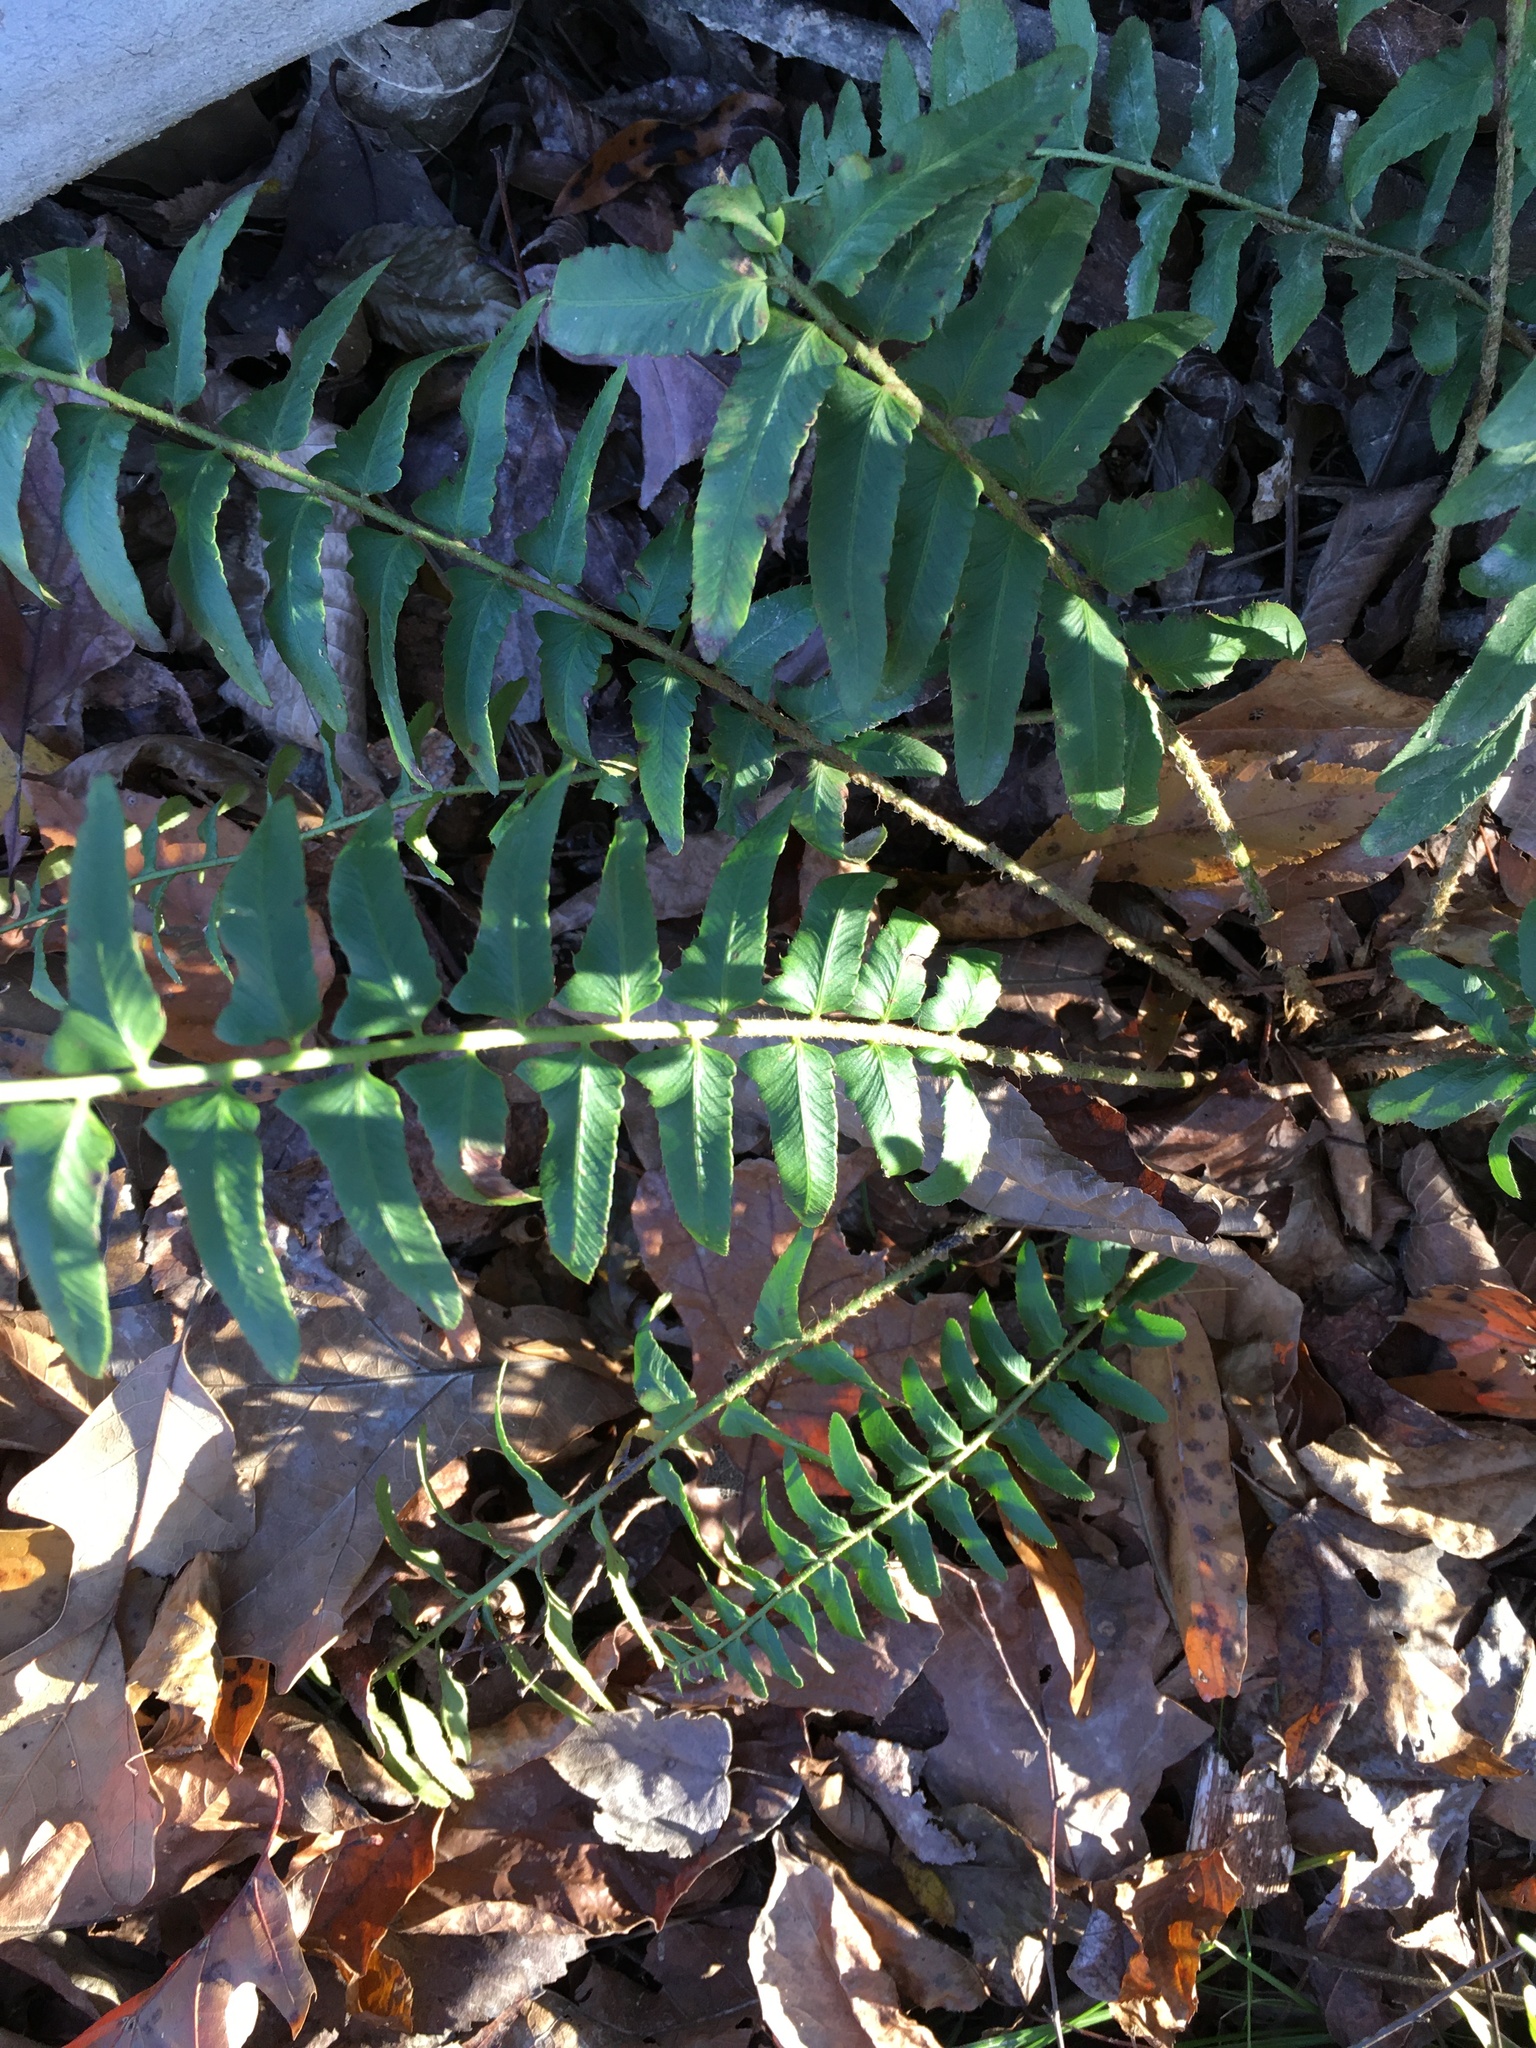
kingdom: Plantae
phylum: Tracheophyta
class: Polypodiopsida
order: Polypodiales
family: Dryopteridaceae
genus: Polystichum
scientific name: Polystichum acrostichoides
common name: Christmas fern
